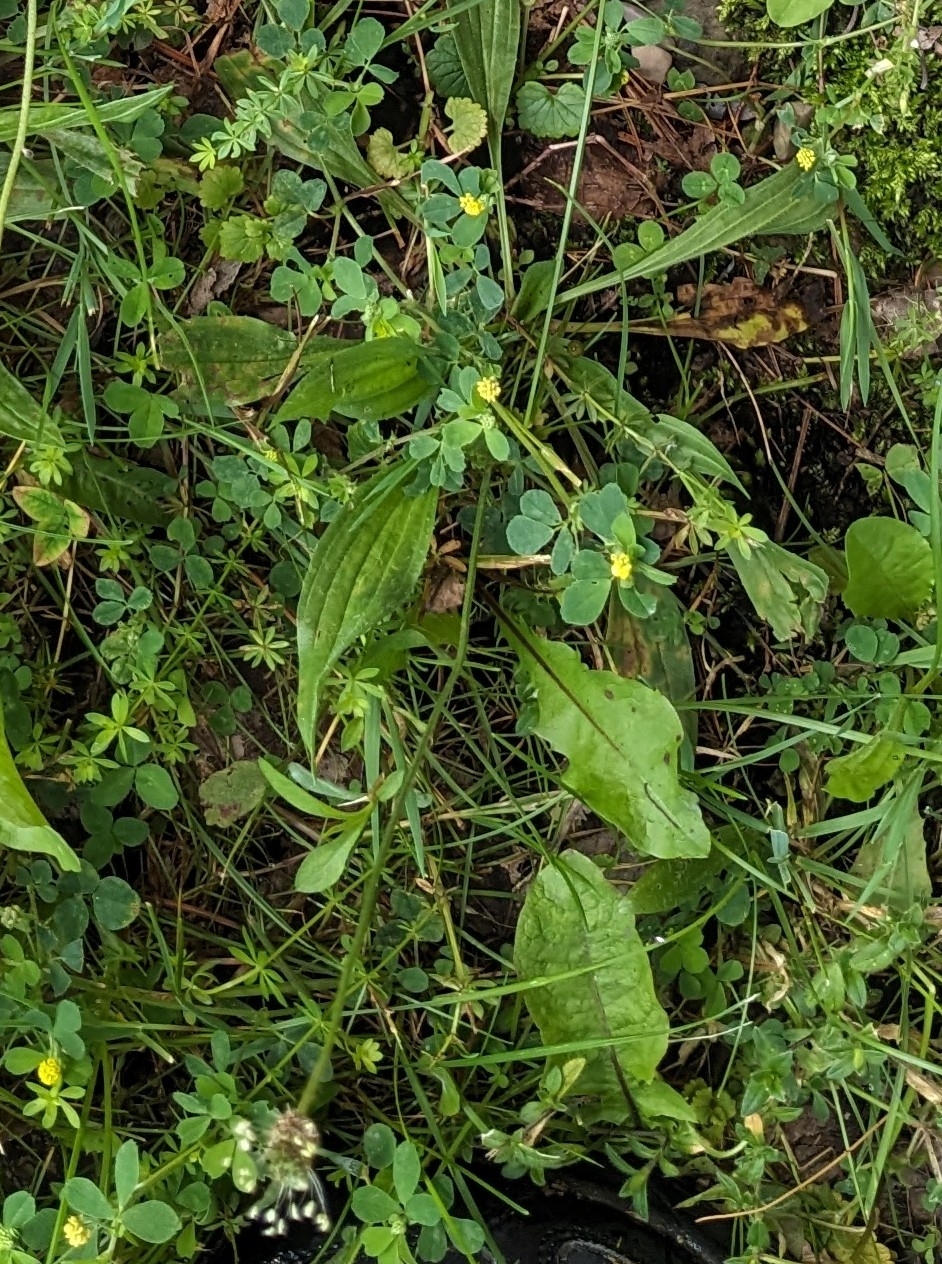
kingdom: Plantae
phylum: Tracheophyta
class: Magnoliopsida
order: Lamiales
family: Plantaginaceae
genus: Plantago
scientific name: Plantago lanceolata
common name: Ribwort plantain
